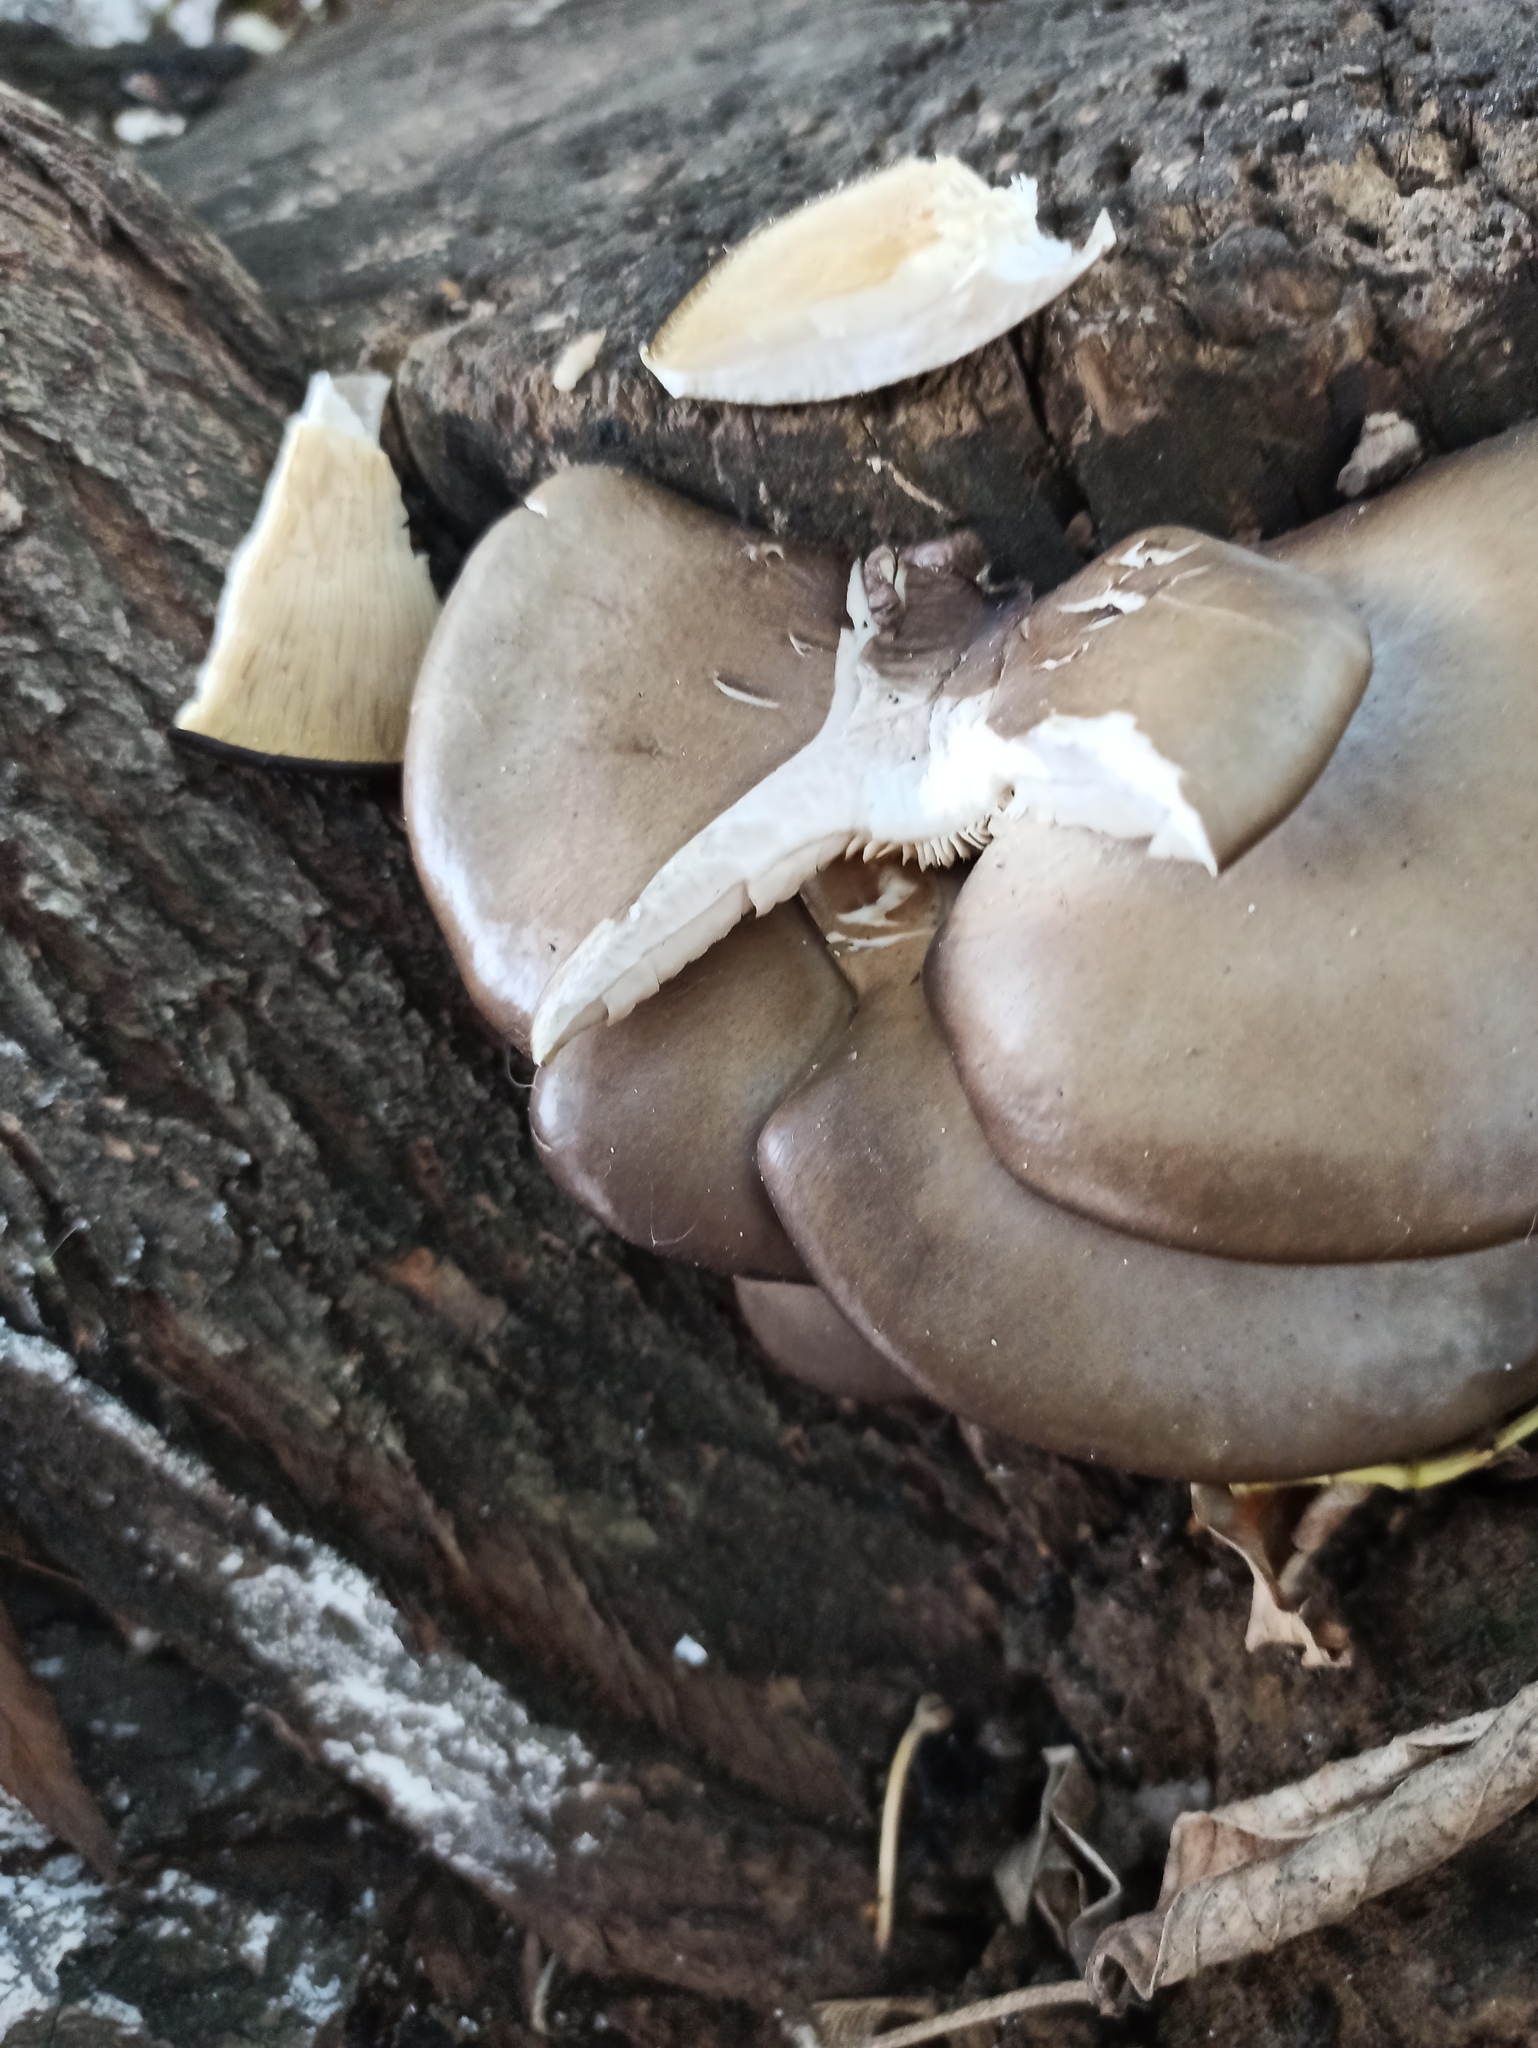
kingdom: Fungi
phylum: Basidiomycota
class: Agaricomycetes
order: Agaricales
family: Pleurotaceae
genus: Pleurotus
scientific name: Pleurotus ostreatus
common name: Oyster mushroom
